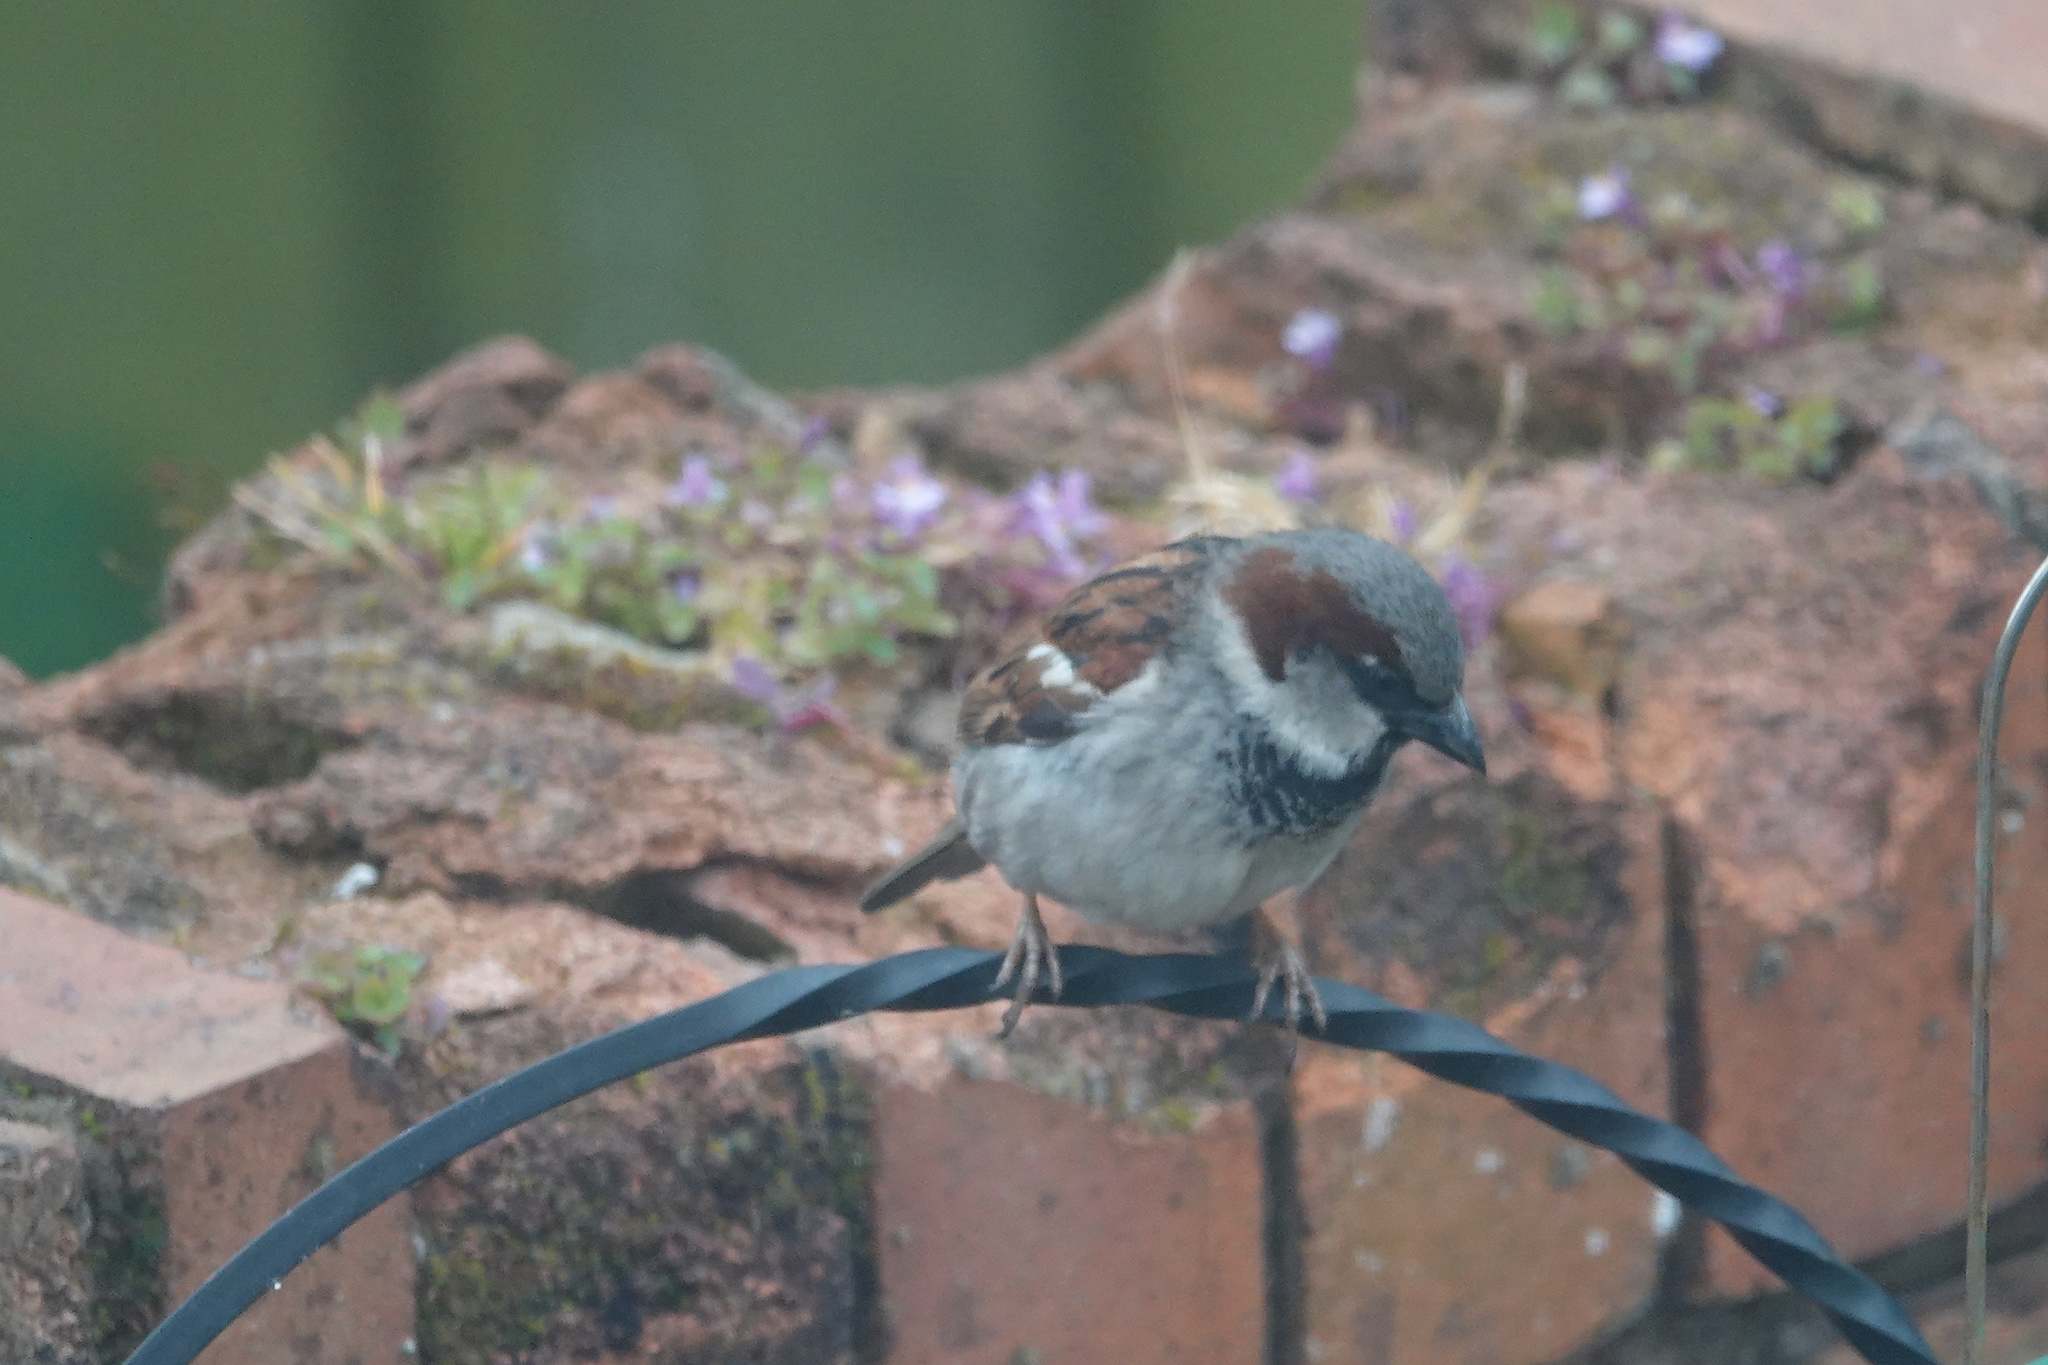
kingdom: Animalia
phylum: Chordata
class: Aves
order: Passeriformes
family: Passeridae
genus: Passer
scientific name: Passer domesticus
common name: House sparrow
